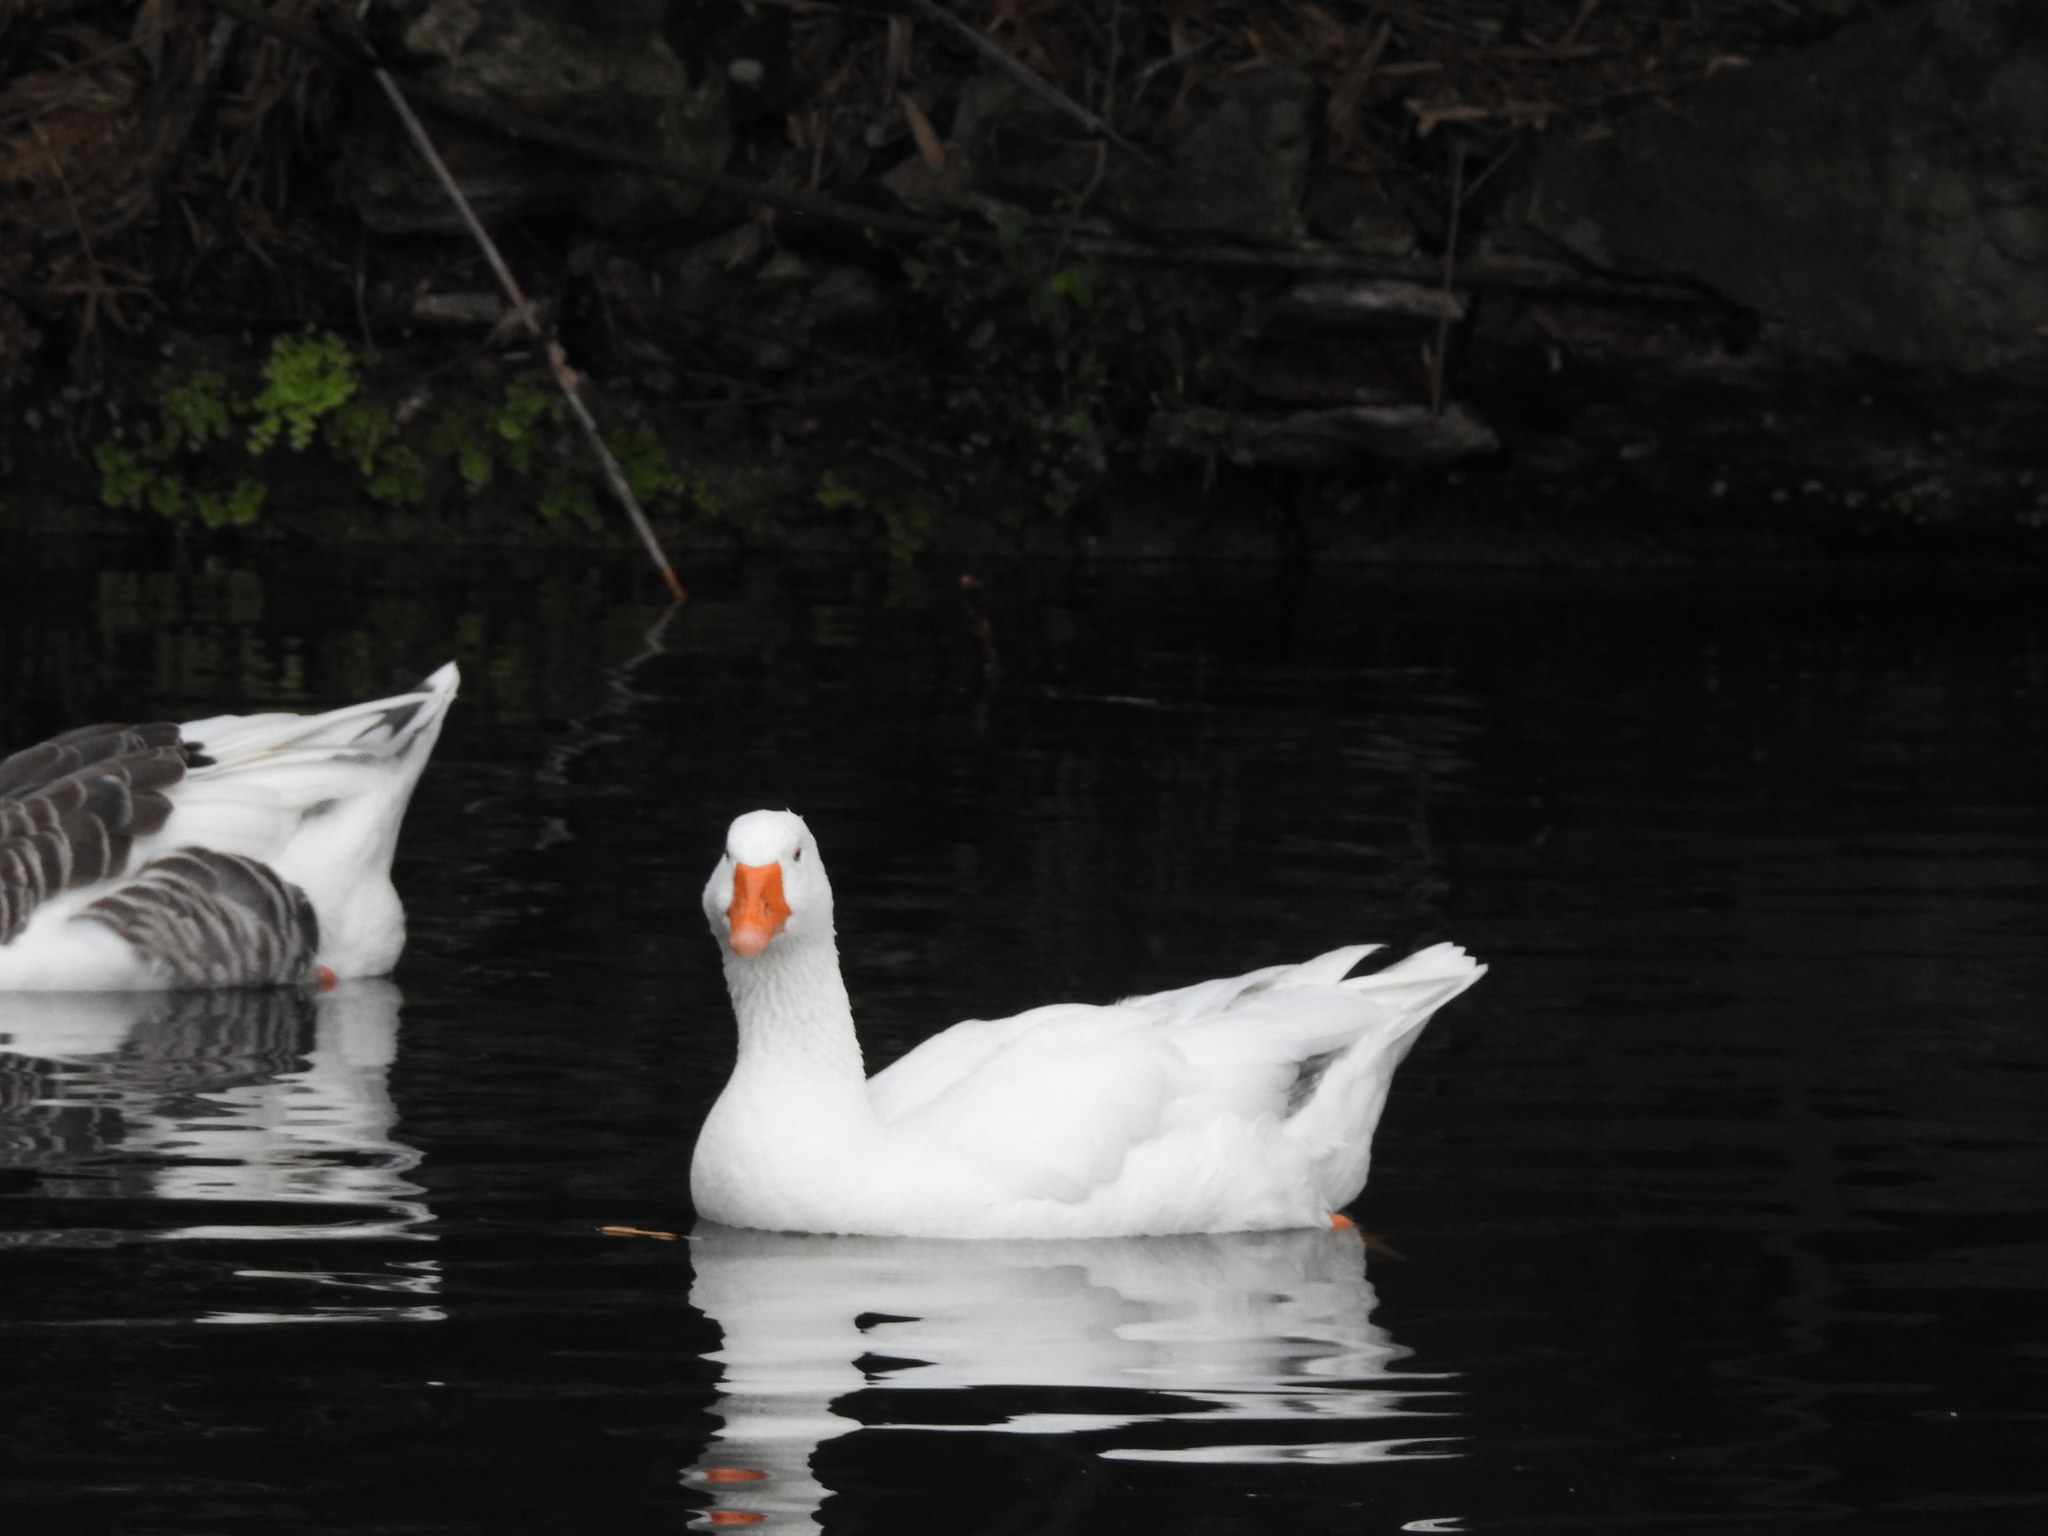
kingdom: Animalia
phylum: Chordata
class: Aves
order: Anseriformes
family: Anatidae
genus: Anser
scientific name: Anser anser
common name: Greylag goose
